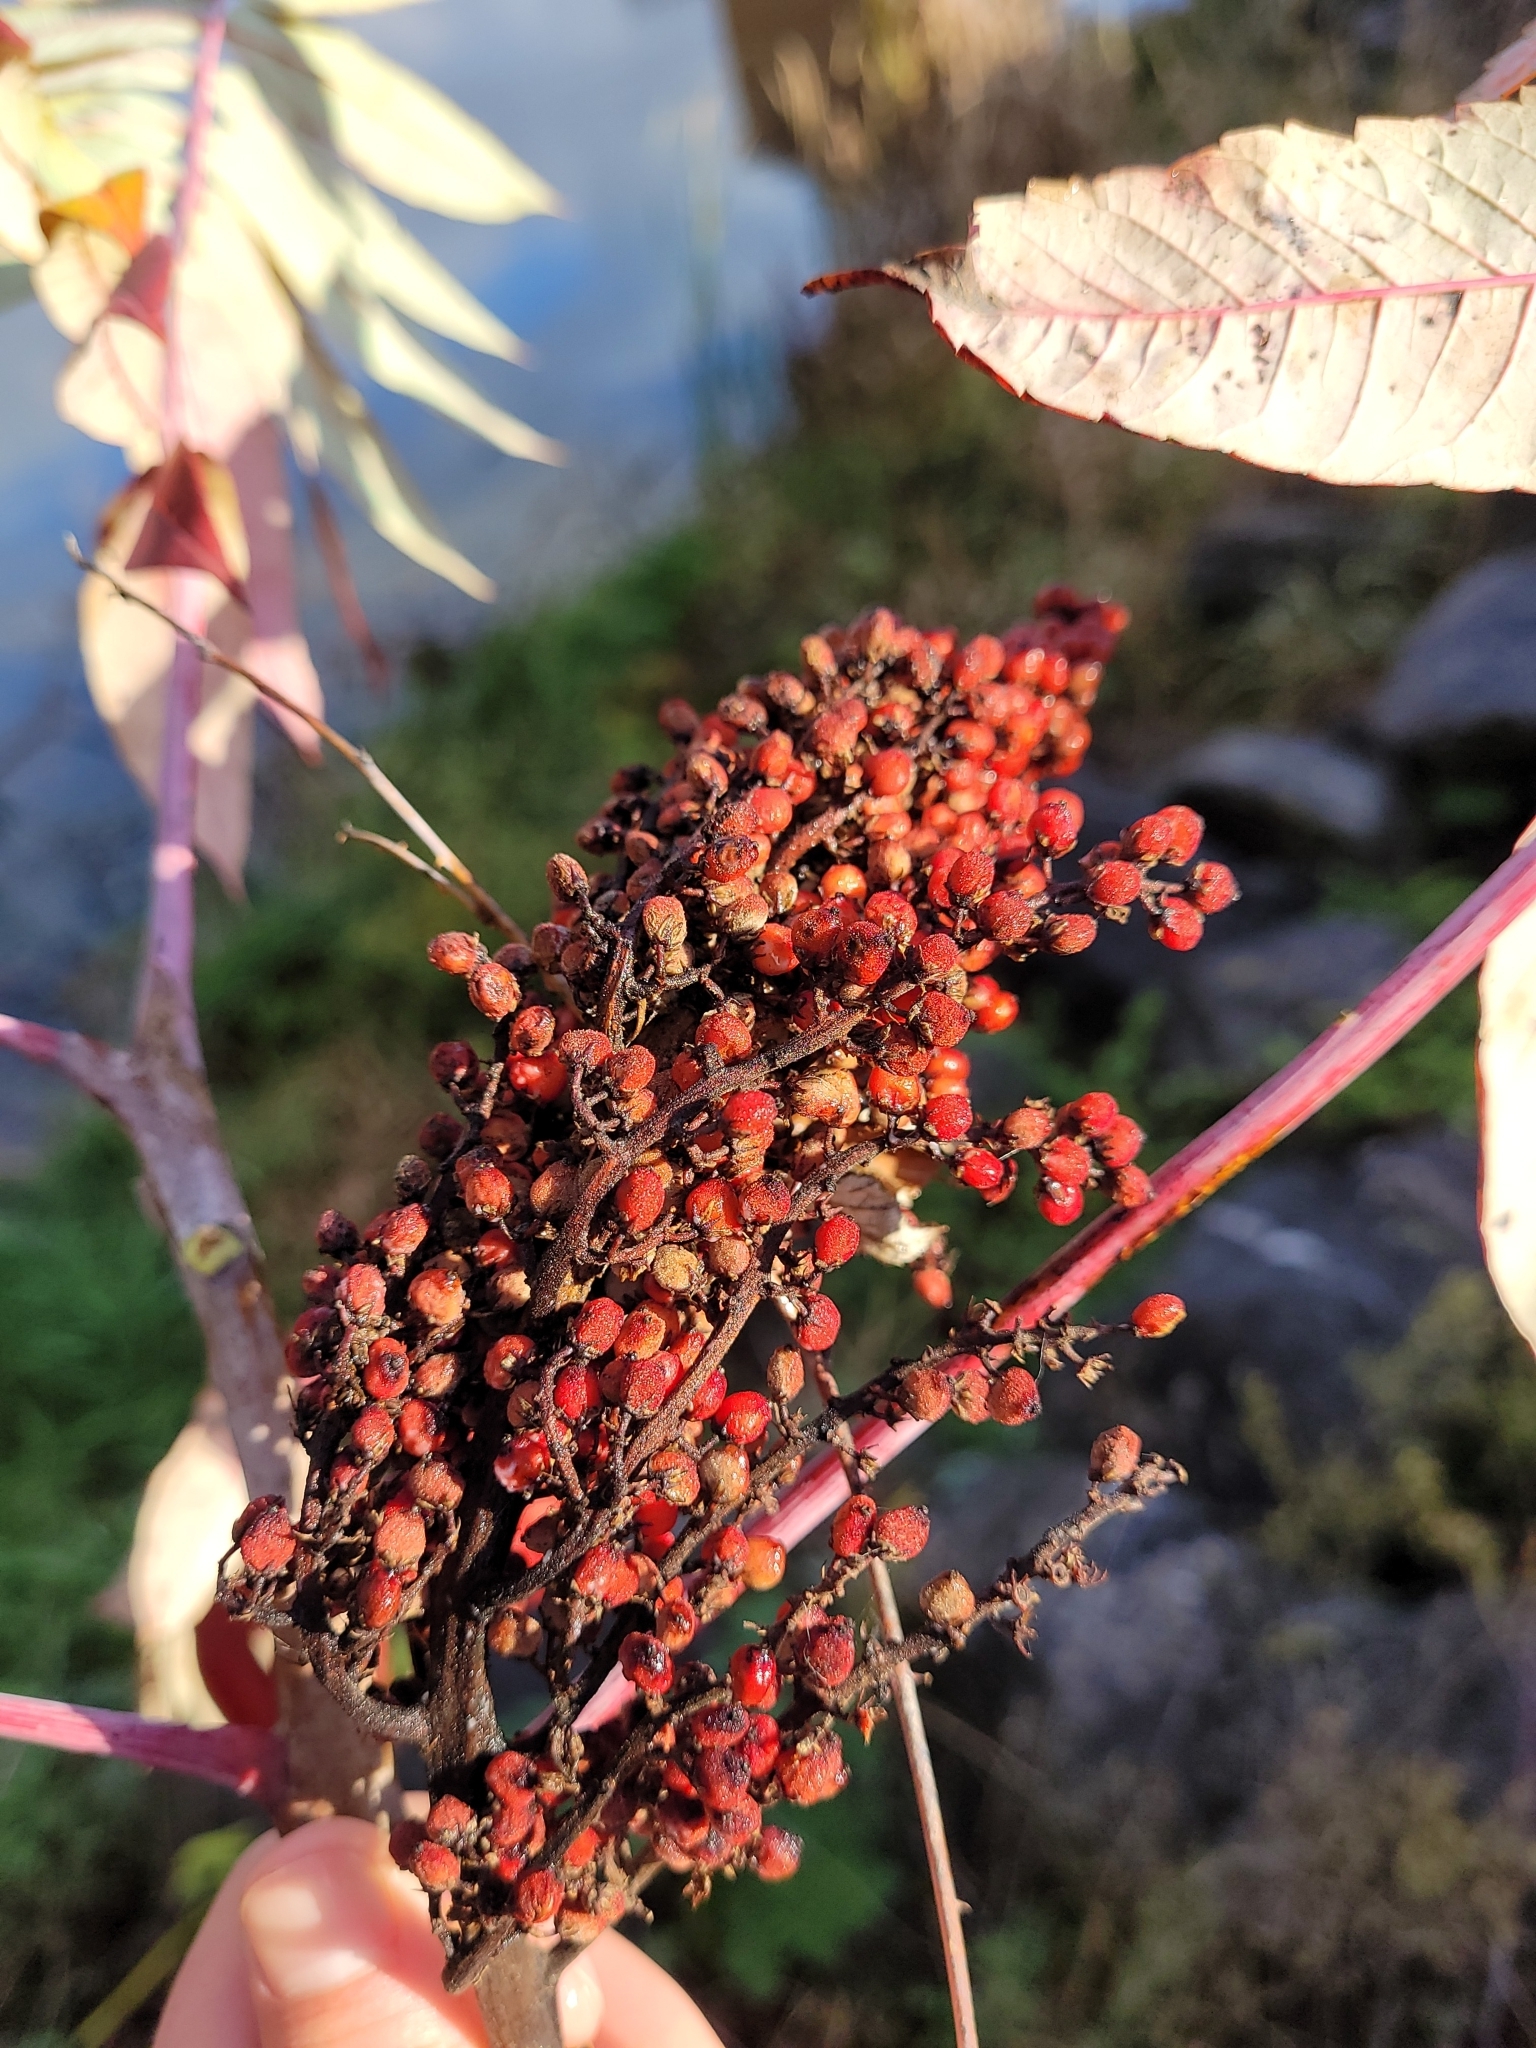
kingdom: Plantae
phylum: Tracheophyta
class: Magnoliopsida
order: Sapindales
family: Anacardiaceae
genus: Rhus
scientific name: Rhus glabra
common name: Scarlet sumac
